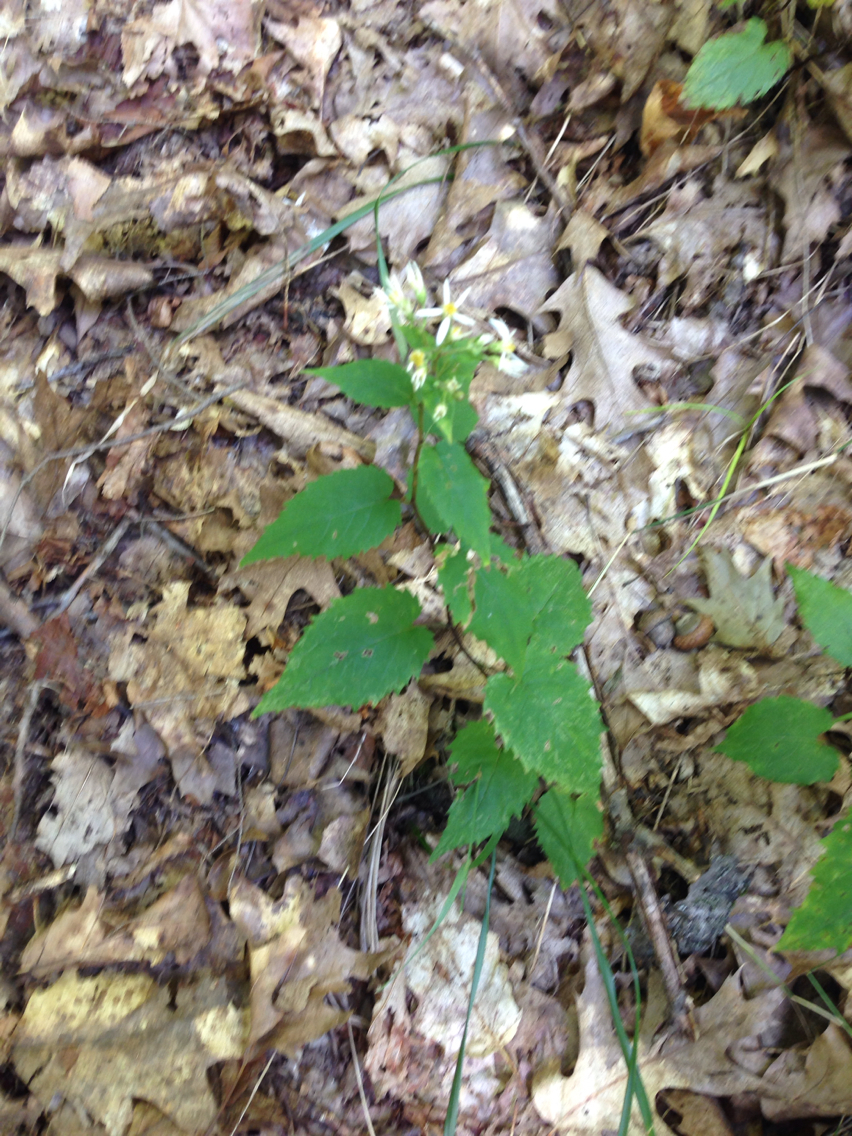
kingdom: Plantae
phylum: Tracheophyta
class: Magnoliopsida
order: Asterales
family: Asteraceae
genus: Symphyotrichum
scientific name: Symphyotrichum cordifolium
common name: Beeweed
